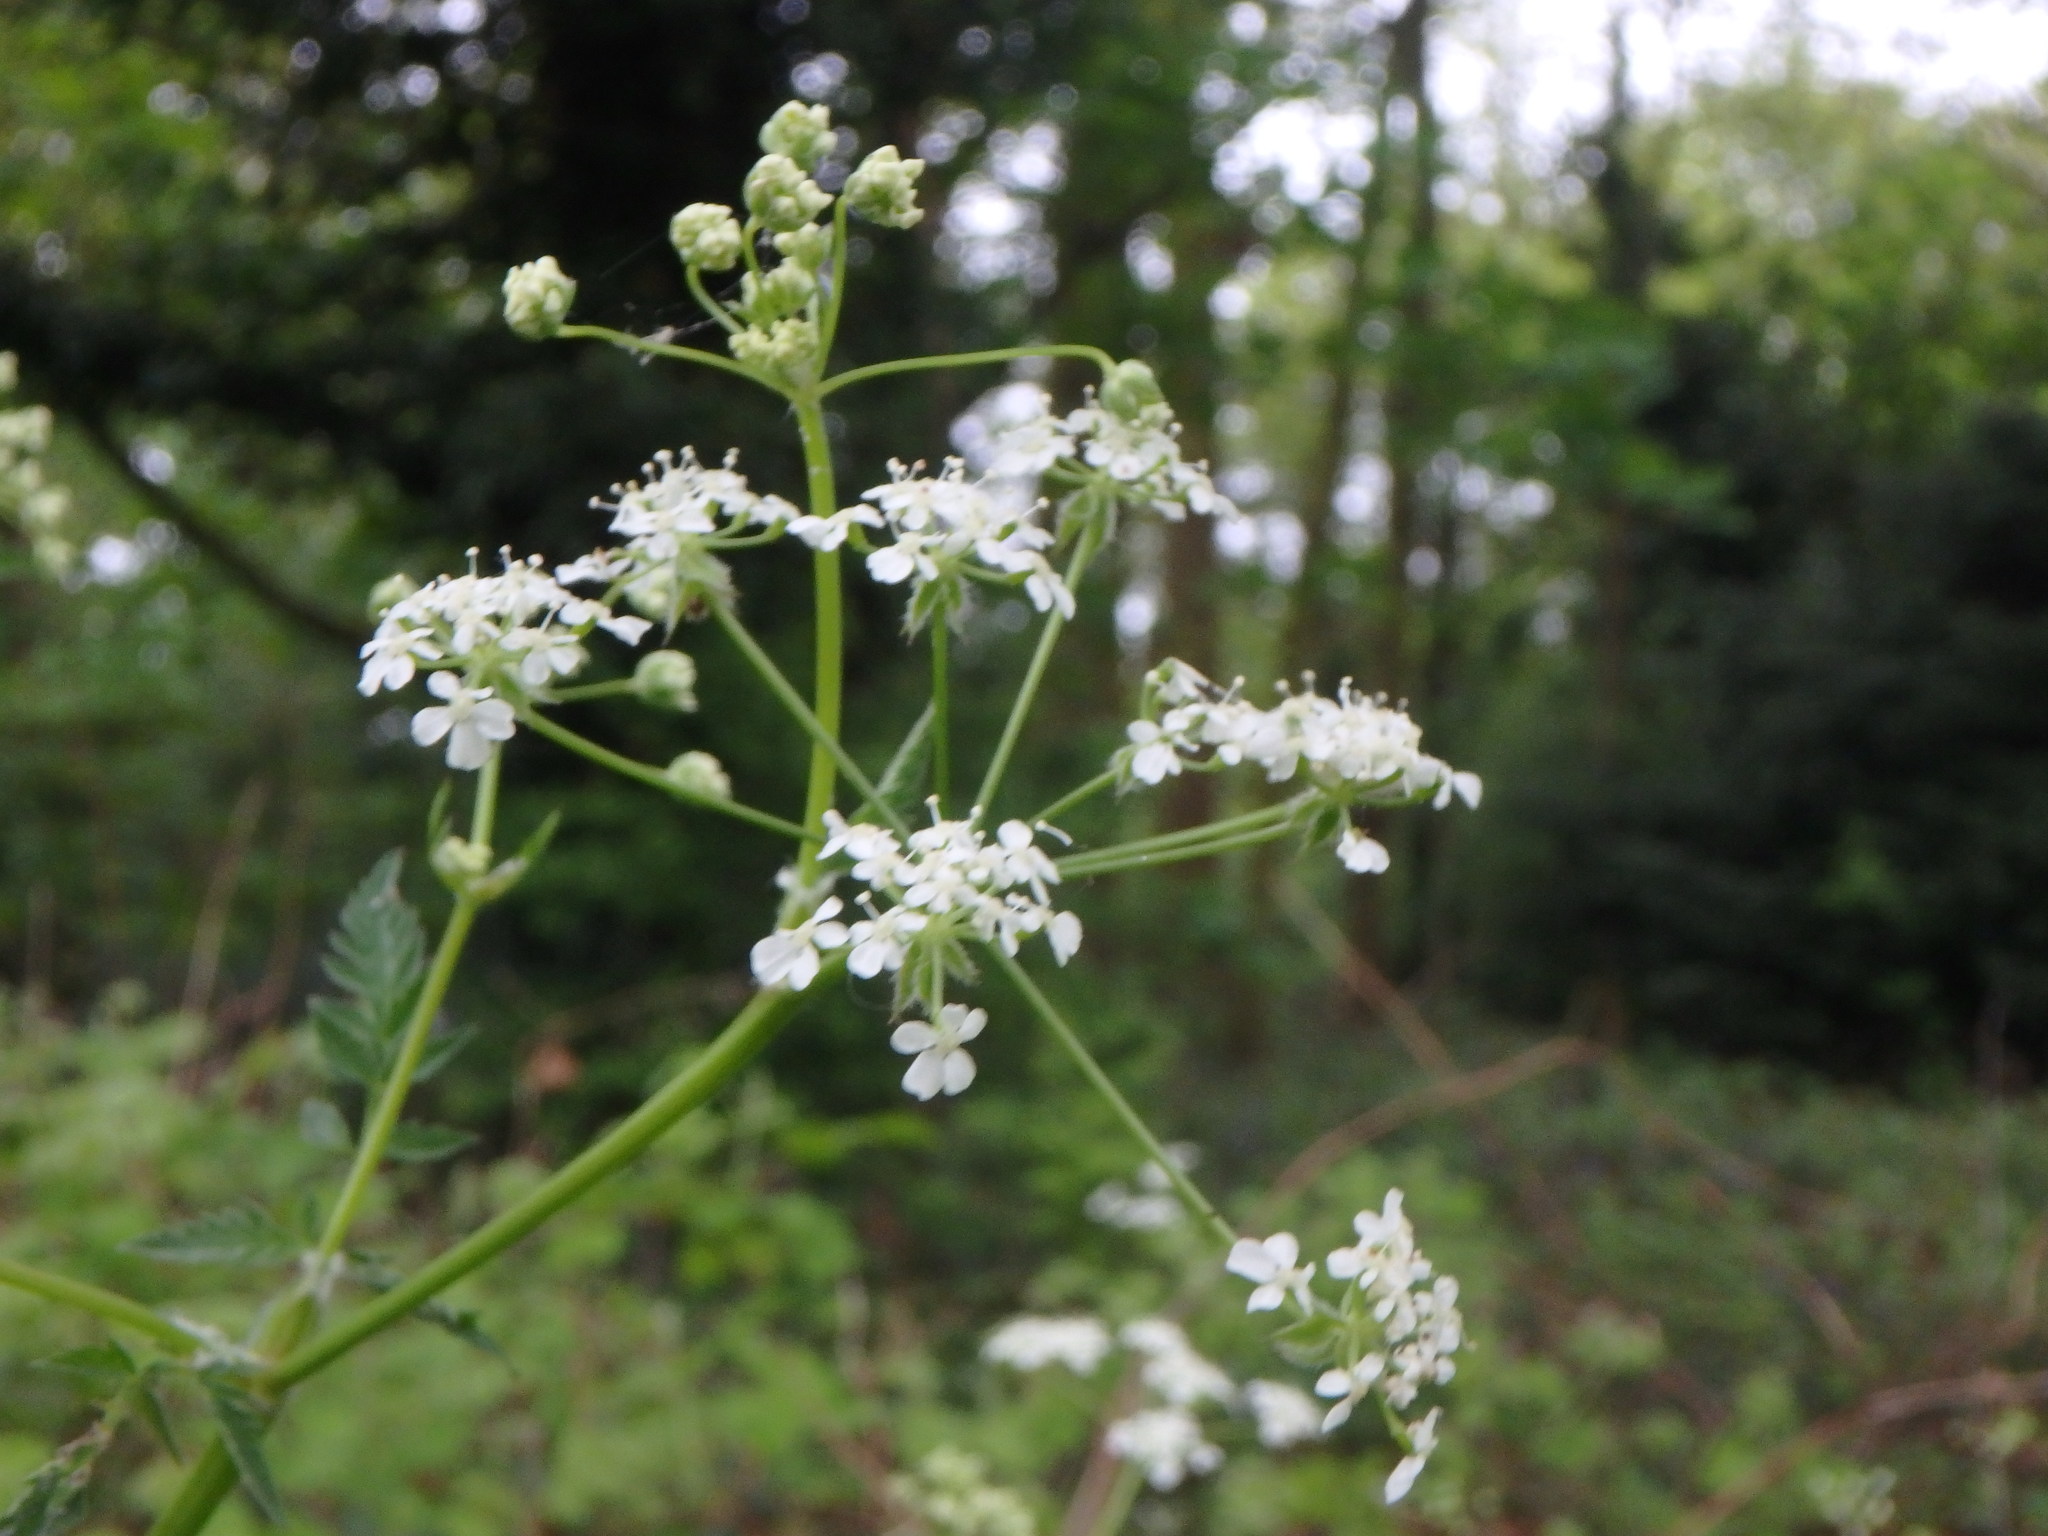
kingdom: Plantae
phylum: Tracheophyta
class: Magnoliopsida
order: Apiales
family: Apiaceae
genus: Anthriscus
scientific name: Anthriscus sylvestris
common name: Cow parsley
